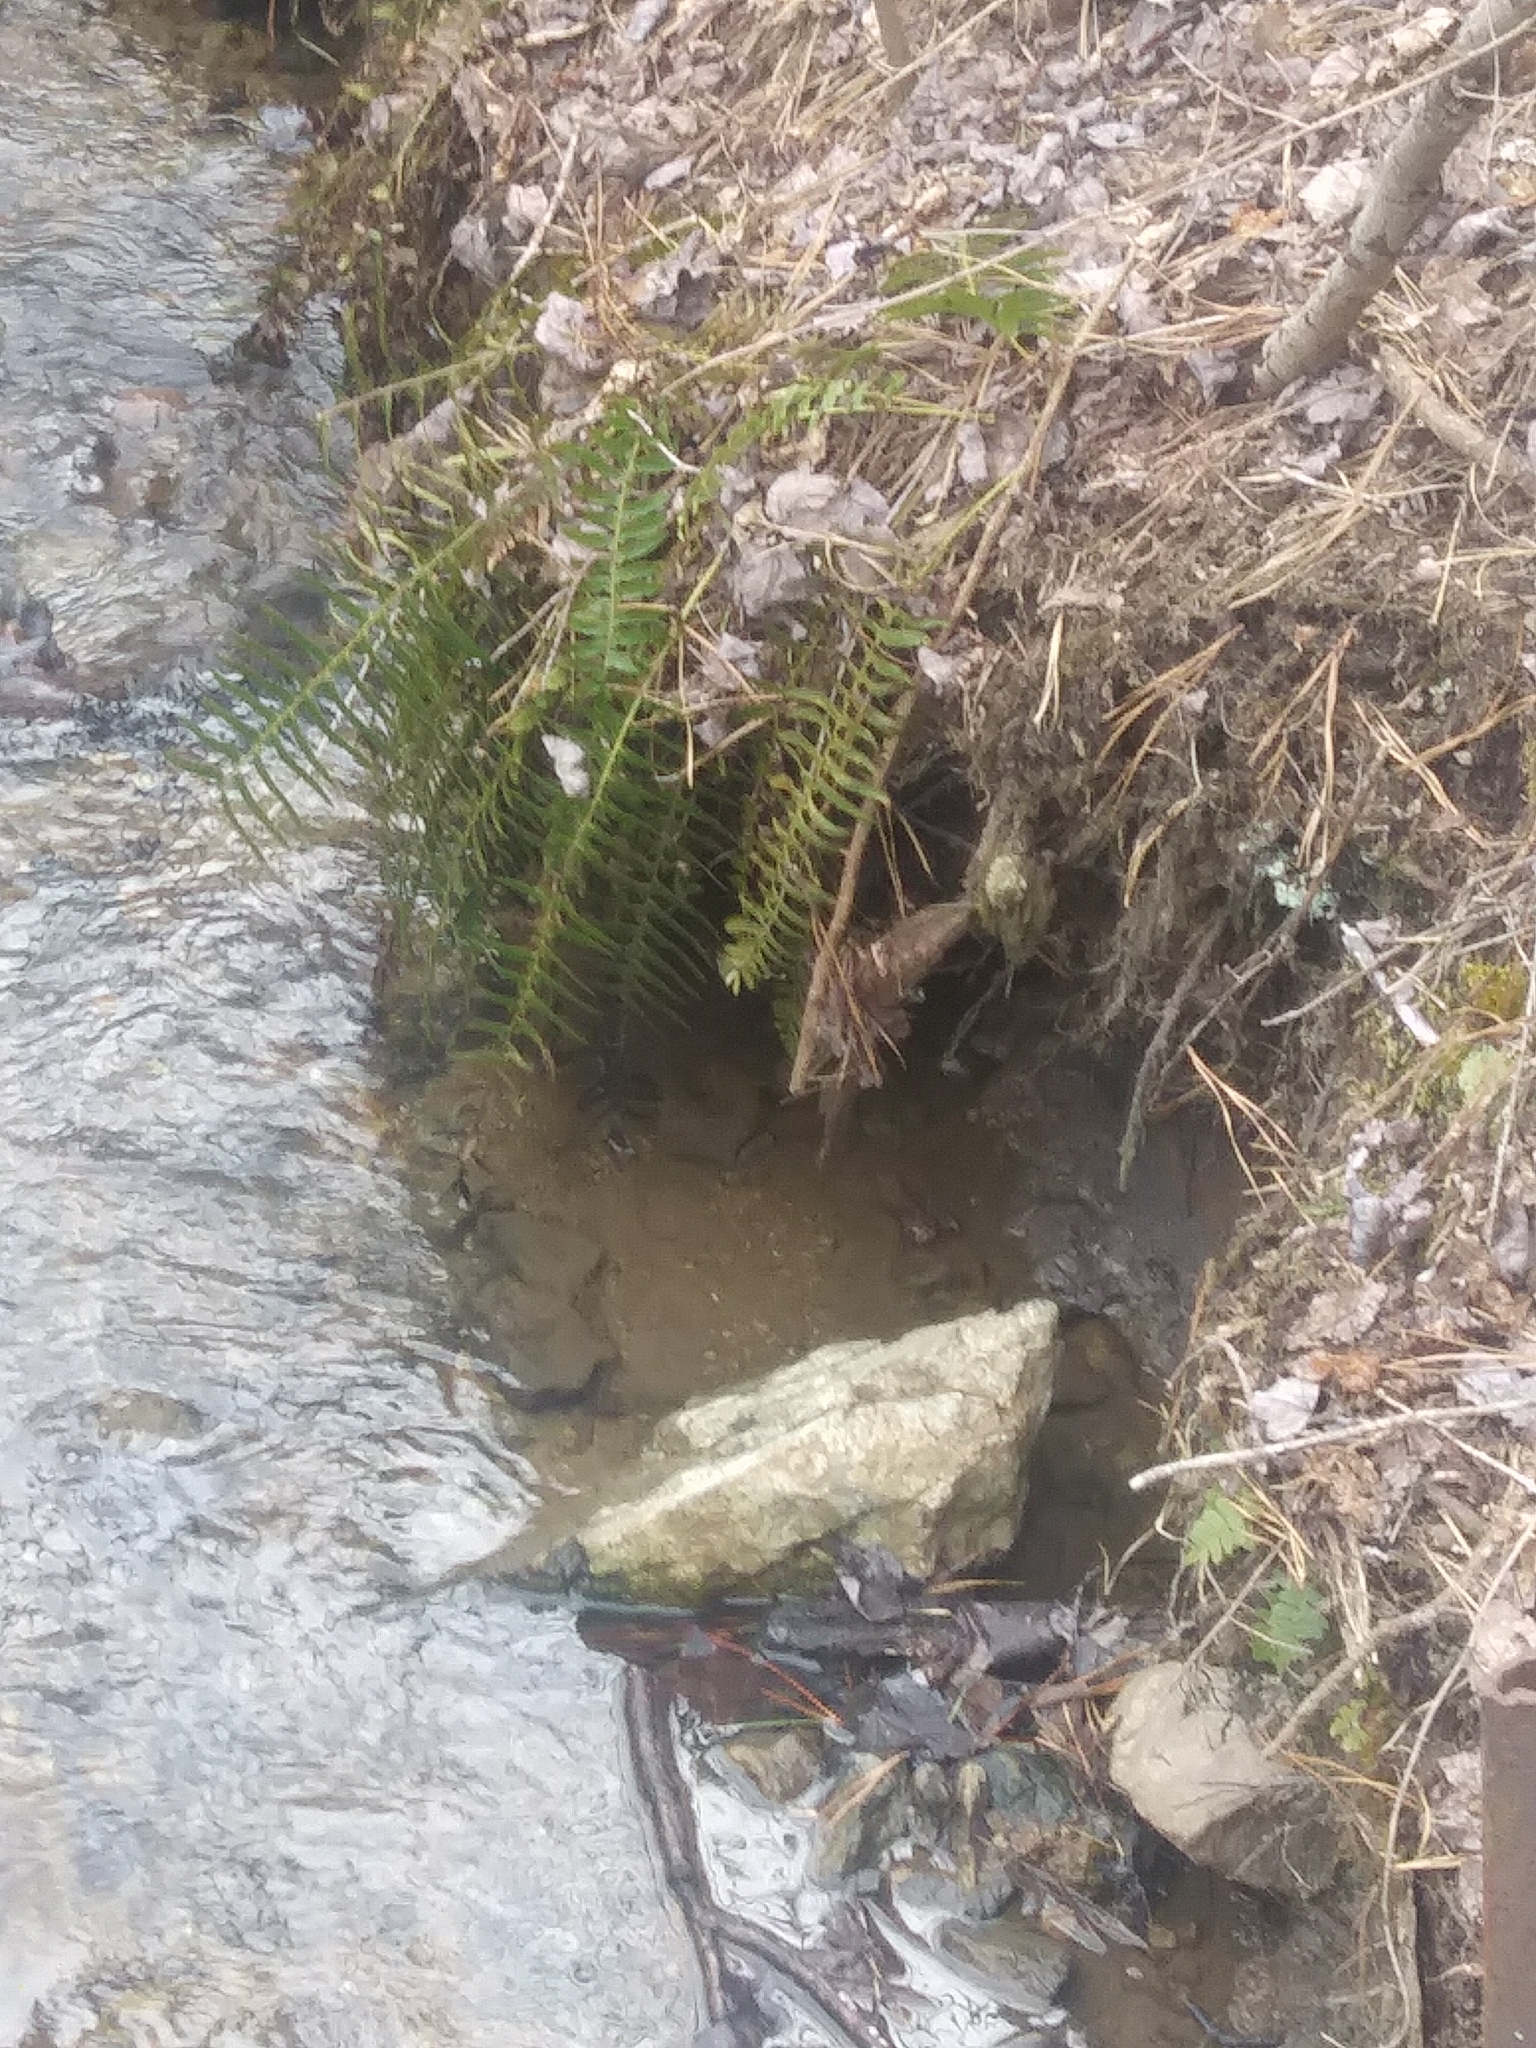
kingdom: Plantae
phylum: Tracheophyta
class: Polypodiopsida
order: Polypodiales
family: Dryopteridaceae
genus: Polystichum
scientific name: Polystichum acrostichoides
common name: Christmas fern
